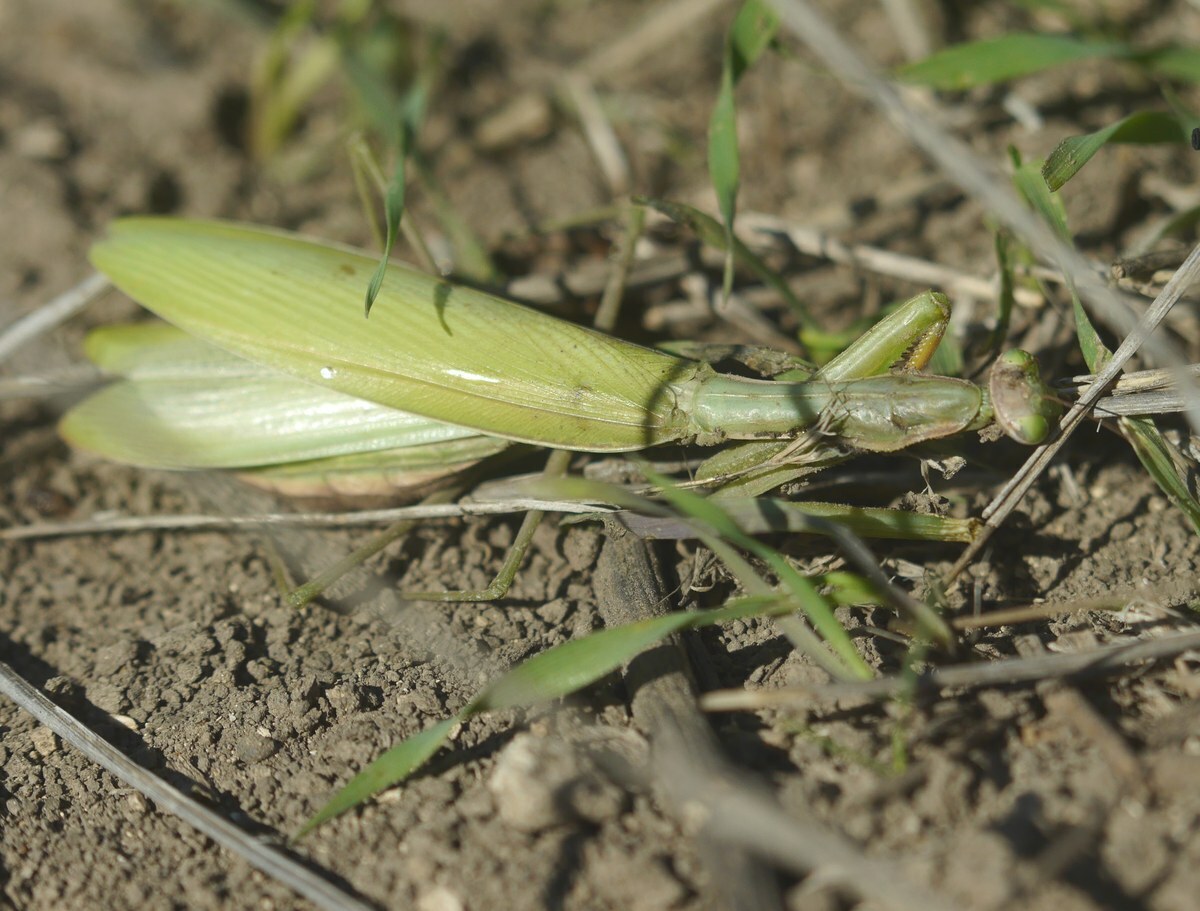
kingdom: Animalia
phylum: Arthropoda
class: Insecta
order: Mantodea
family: Mantidae
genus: Mantis
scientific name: Mantis religiosa
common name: Praying mantis
